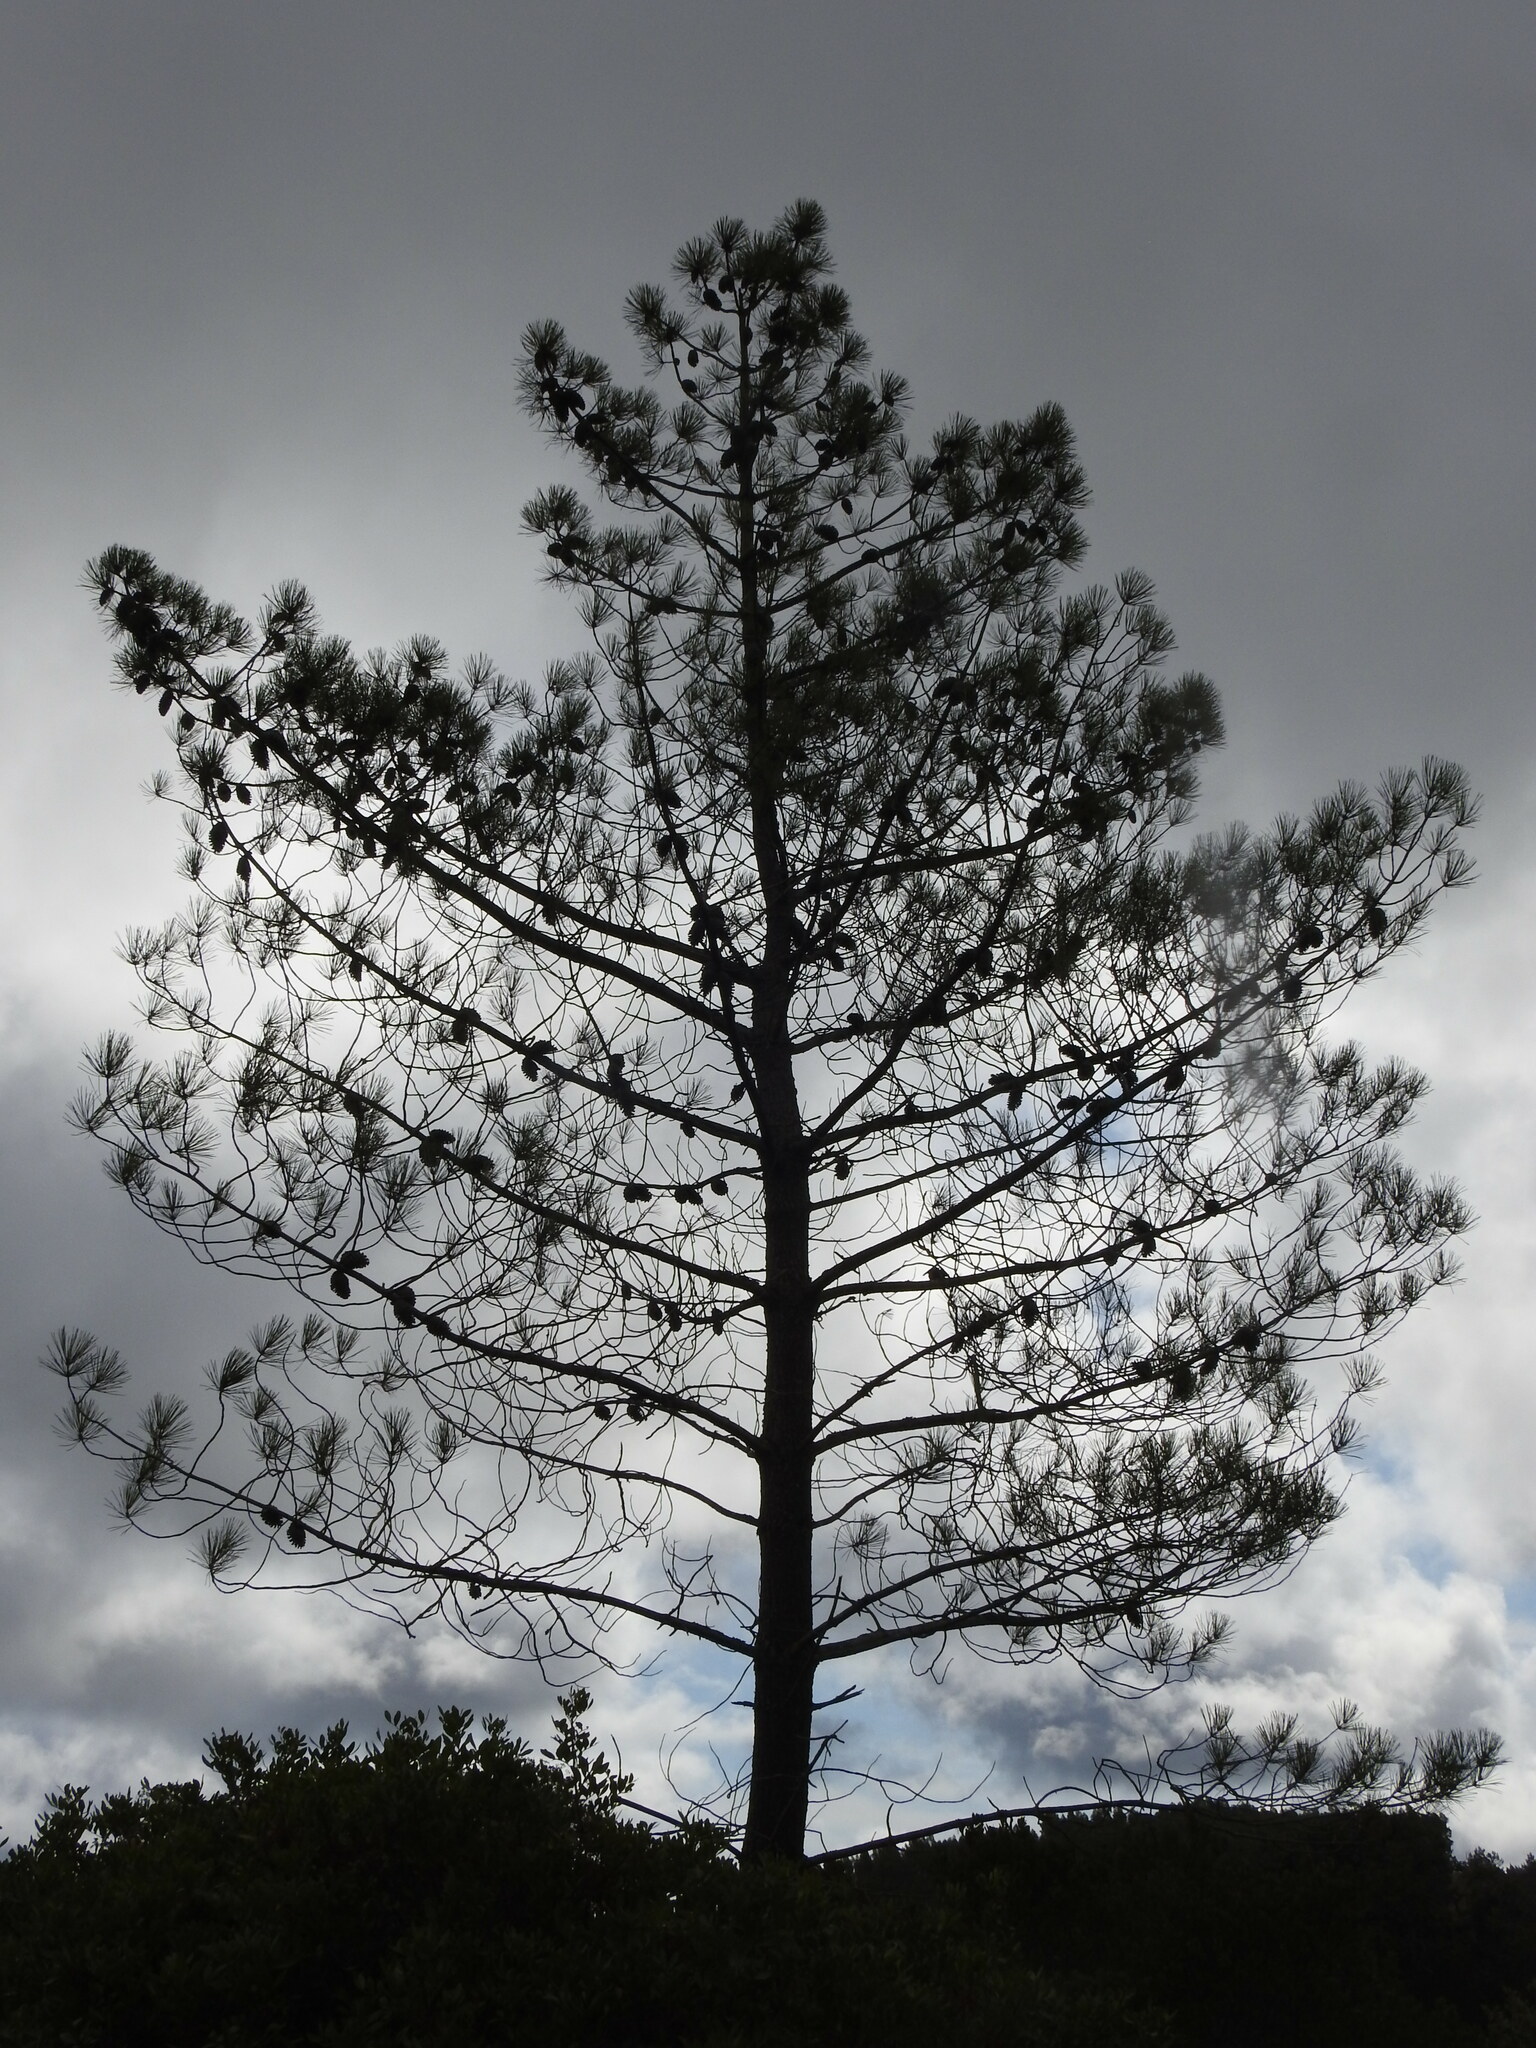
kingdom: Plantae
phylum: Tracheophyta
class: Pinopsida
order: Pinales
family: Pinaceae
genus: Pinus
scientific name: Pinus pinaster
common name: Maritime pine
